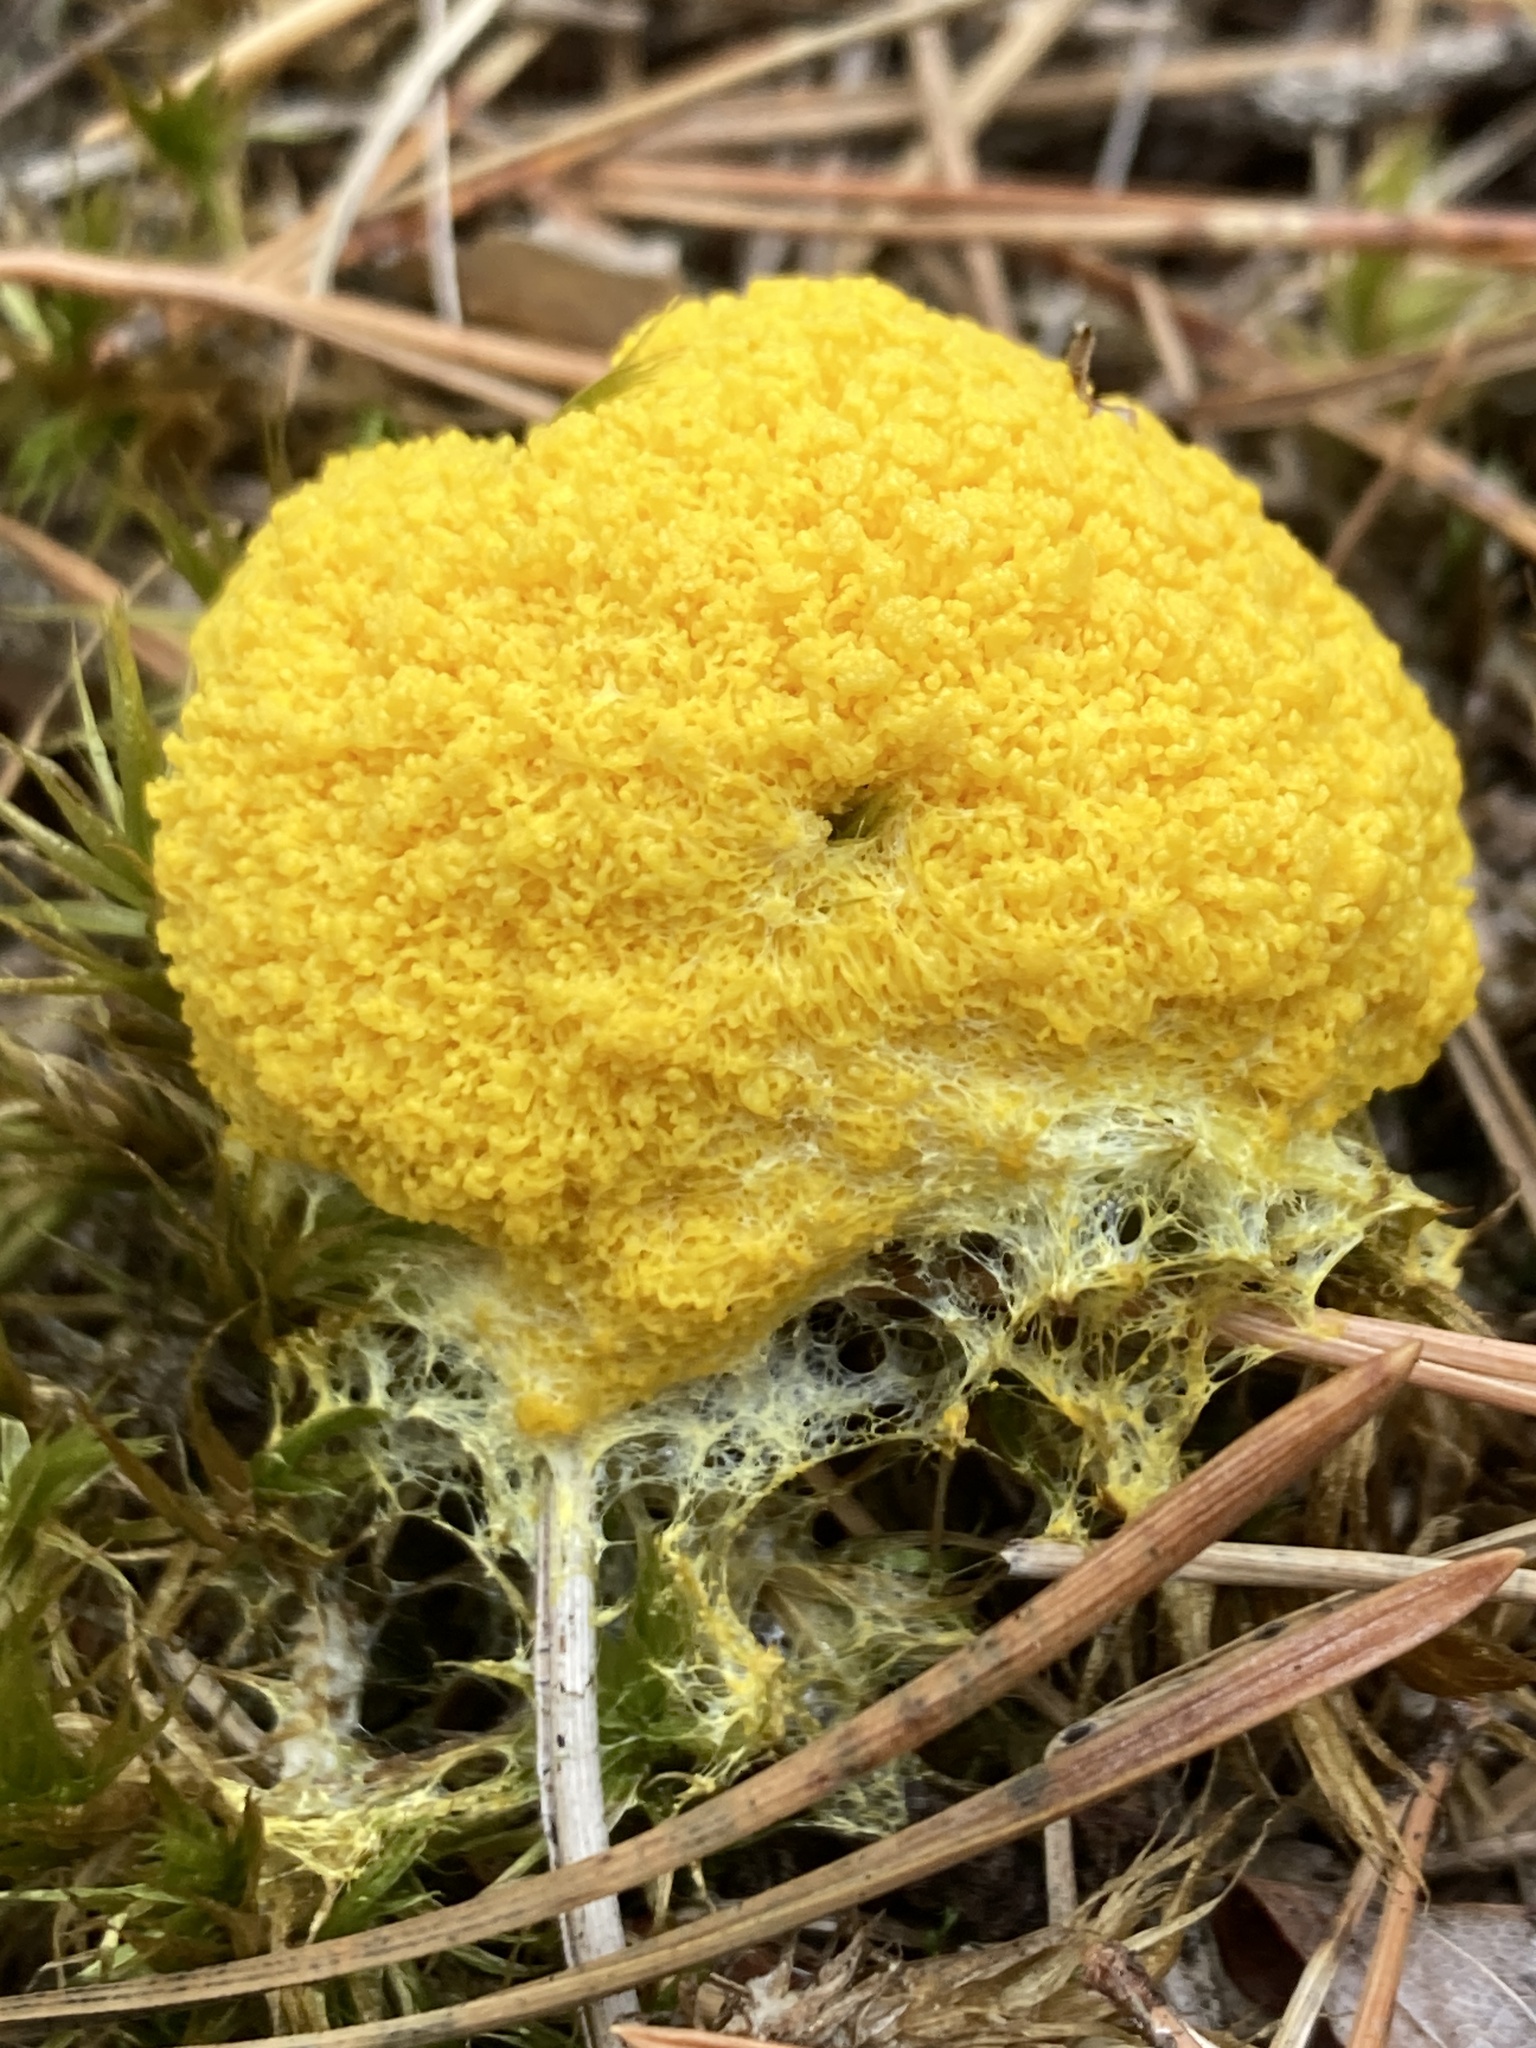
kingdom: Protozoa
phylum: Mycetozoa
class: Myxomycetes
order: Physarales
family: Physaraceae
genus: Fuligo
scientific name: Fuligo septica
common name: Dog vomit slime mold
